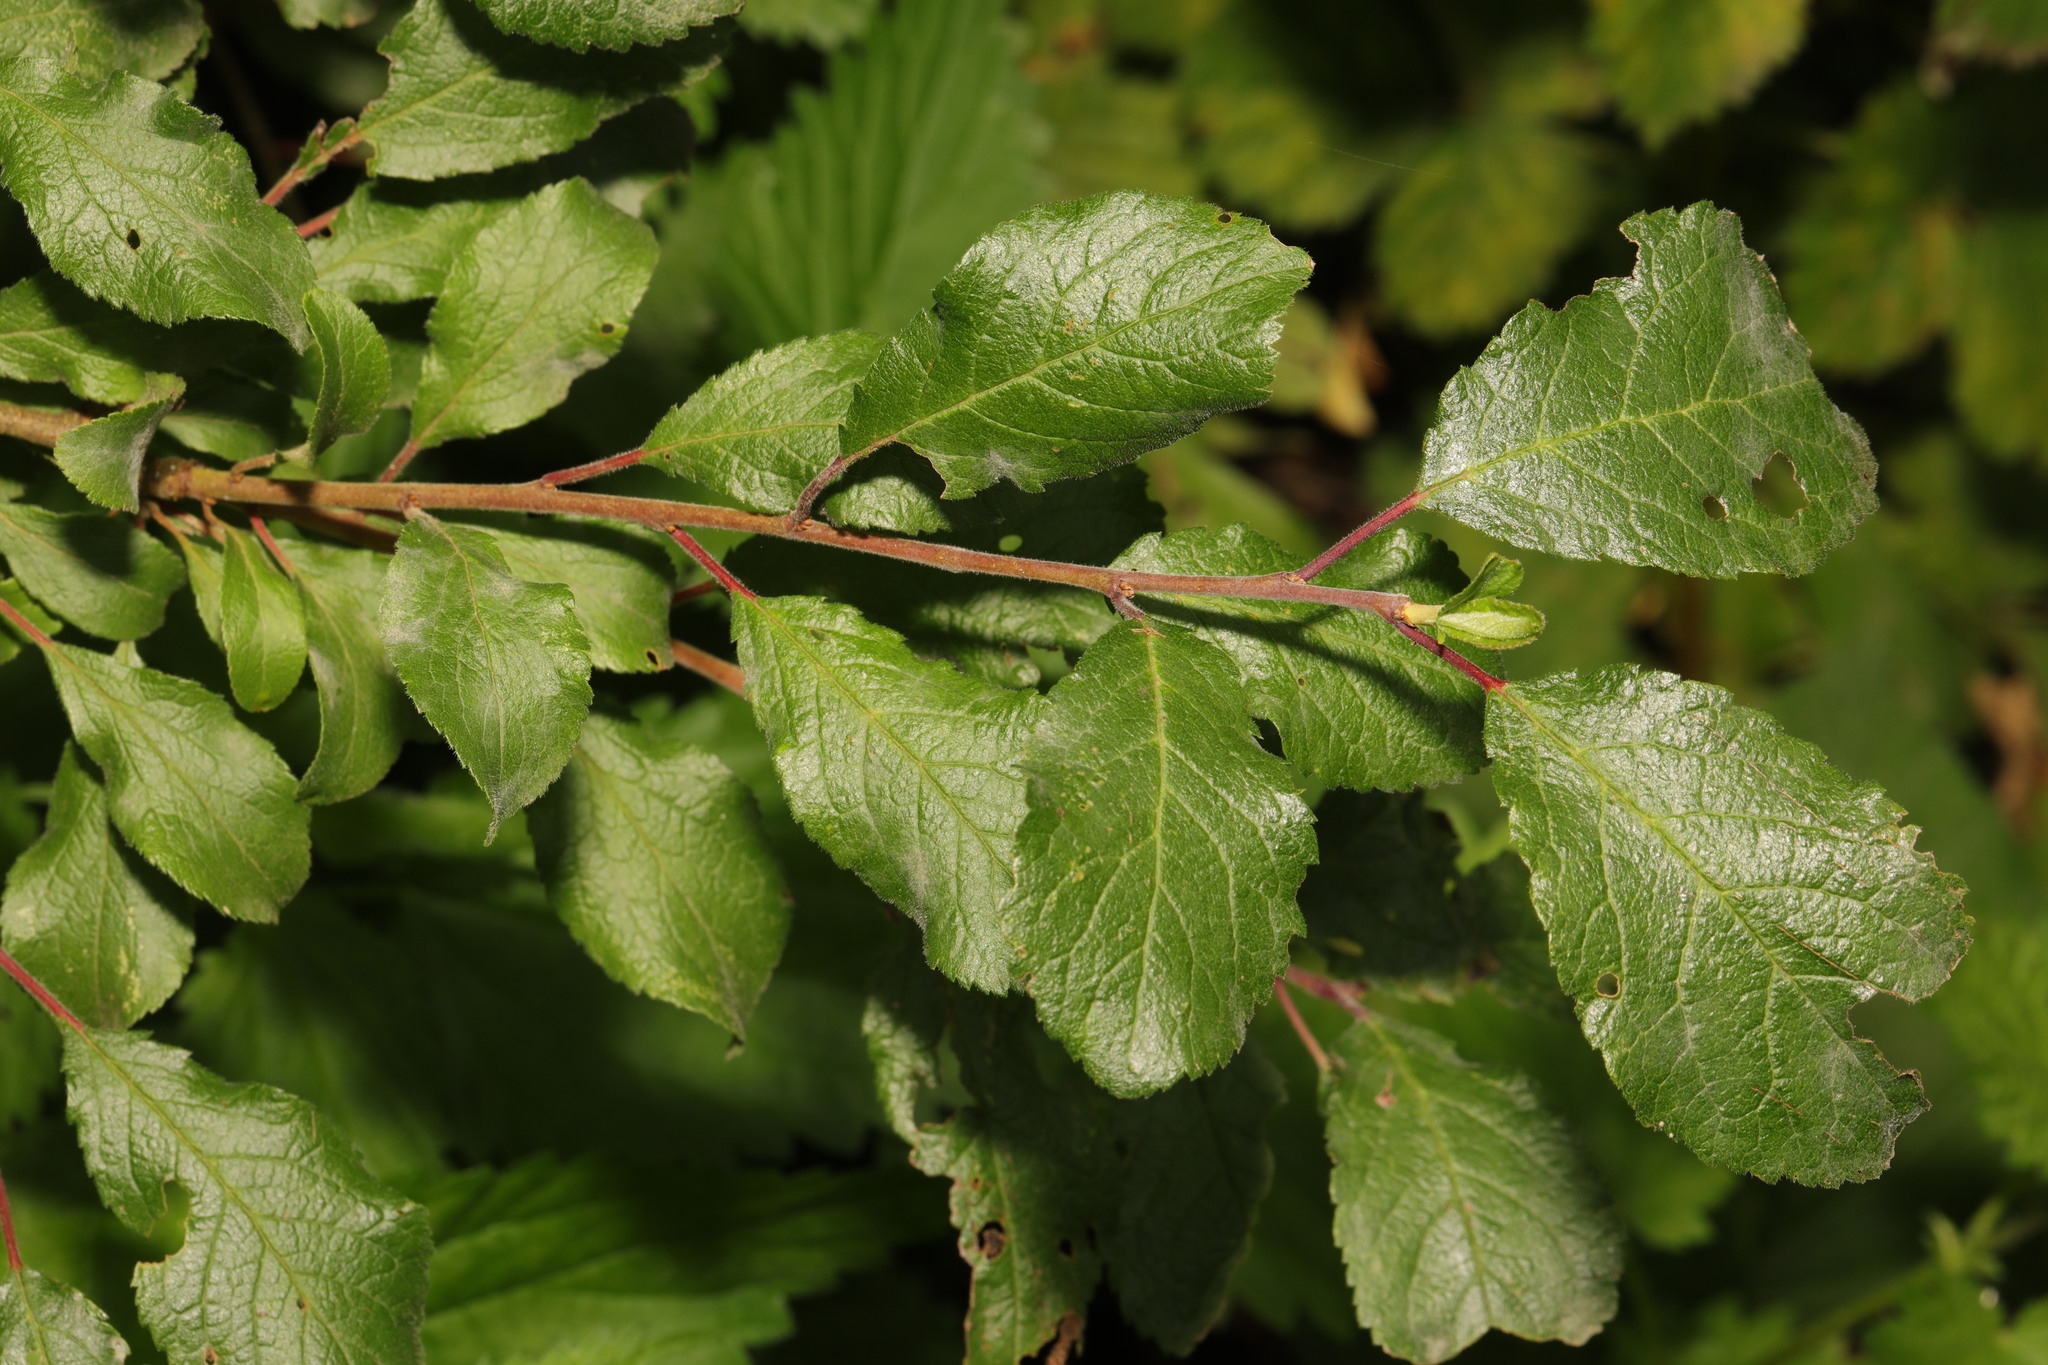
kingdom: Plantae
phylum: Tracheophyta
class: Magnoliopsida
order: Rosales
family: Rosaceae
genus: Prunus
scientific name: Prunus spinosa
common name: Blackthorn
